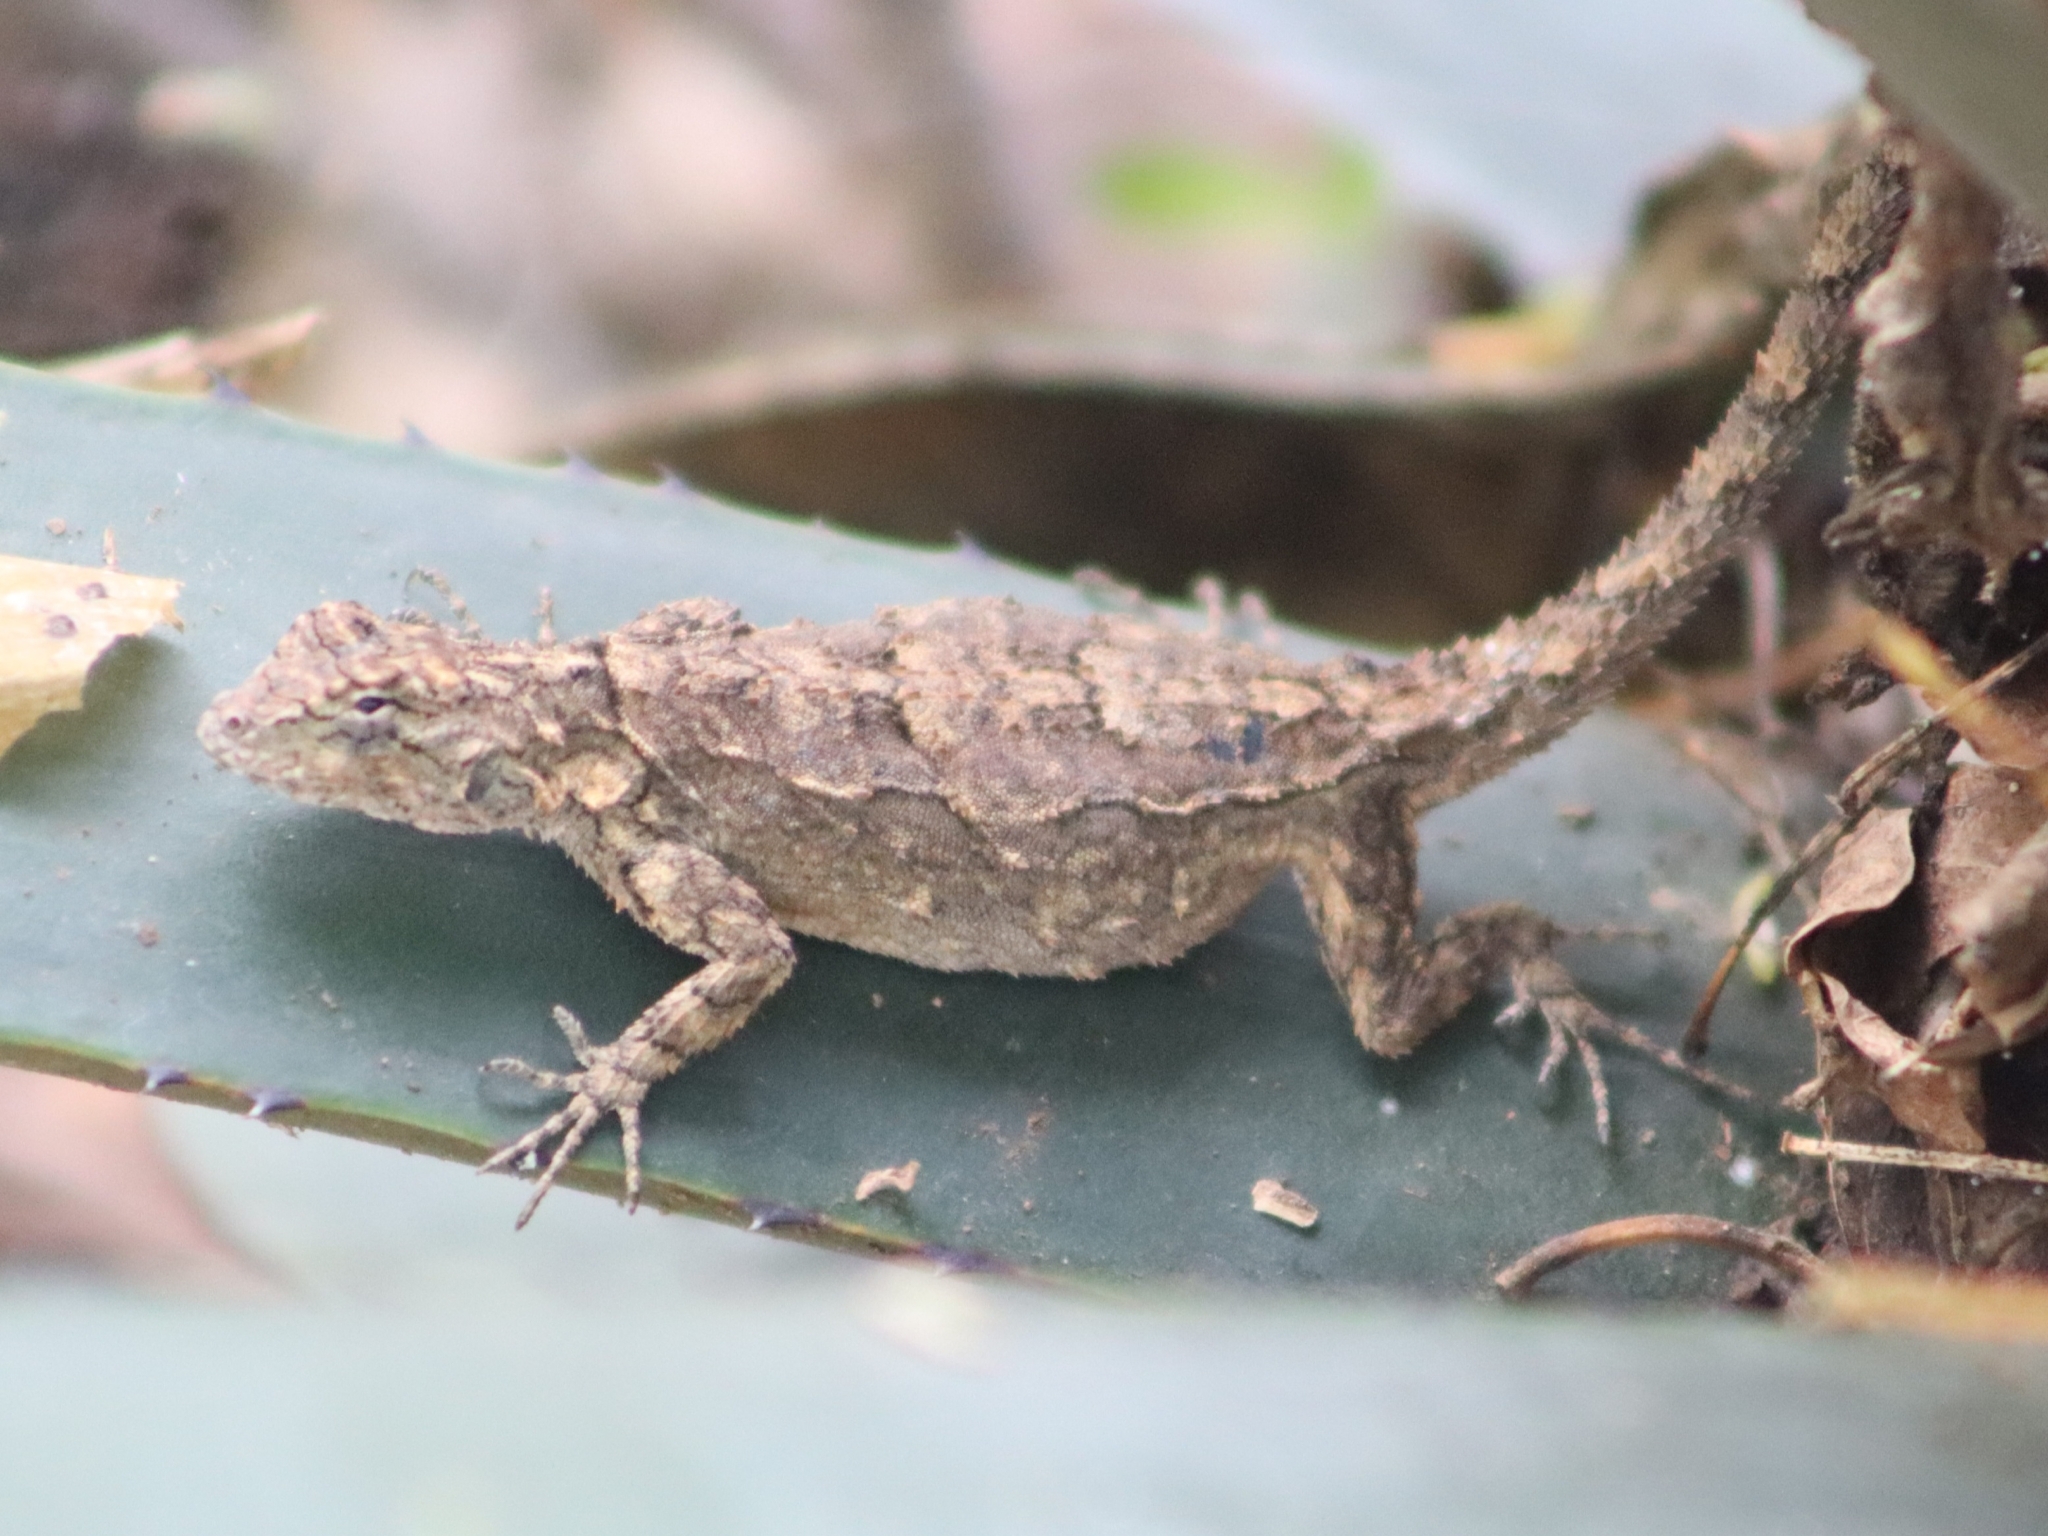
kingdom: Animalia
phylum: Chordata
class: Squamata
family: Phrynosomatidae
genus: Urosaurus
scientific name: Urosaurus bicarinatus
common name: Tropical tree lizard
